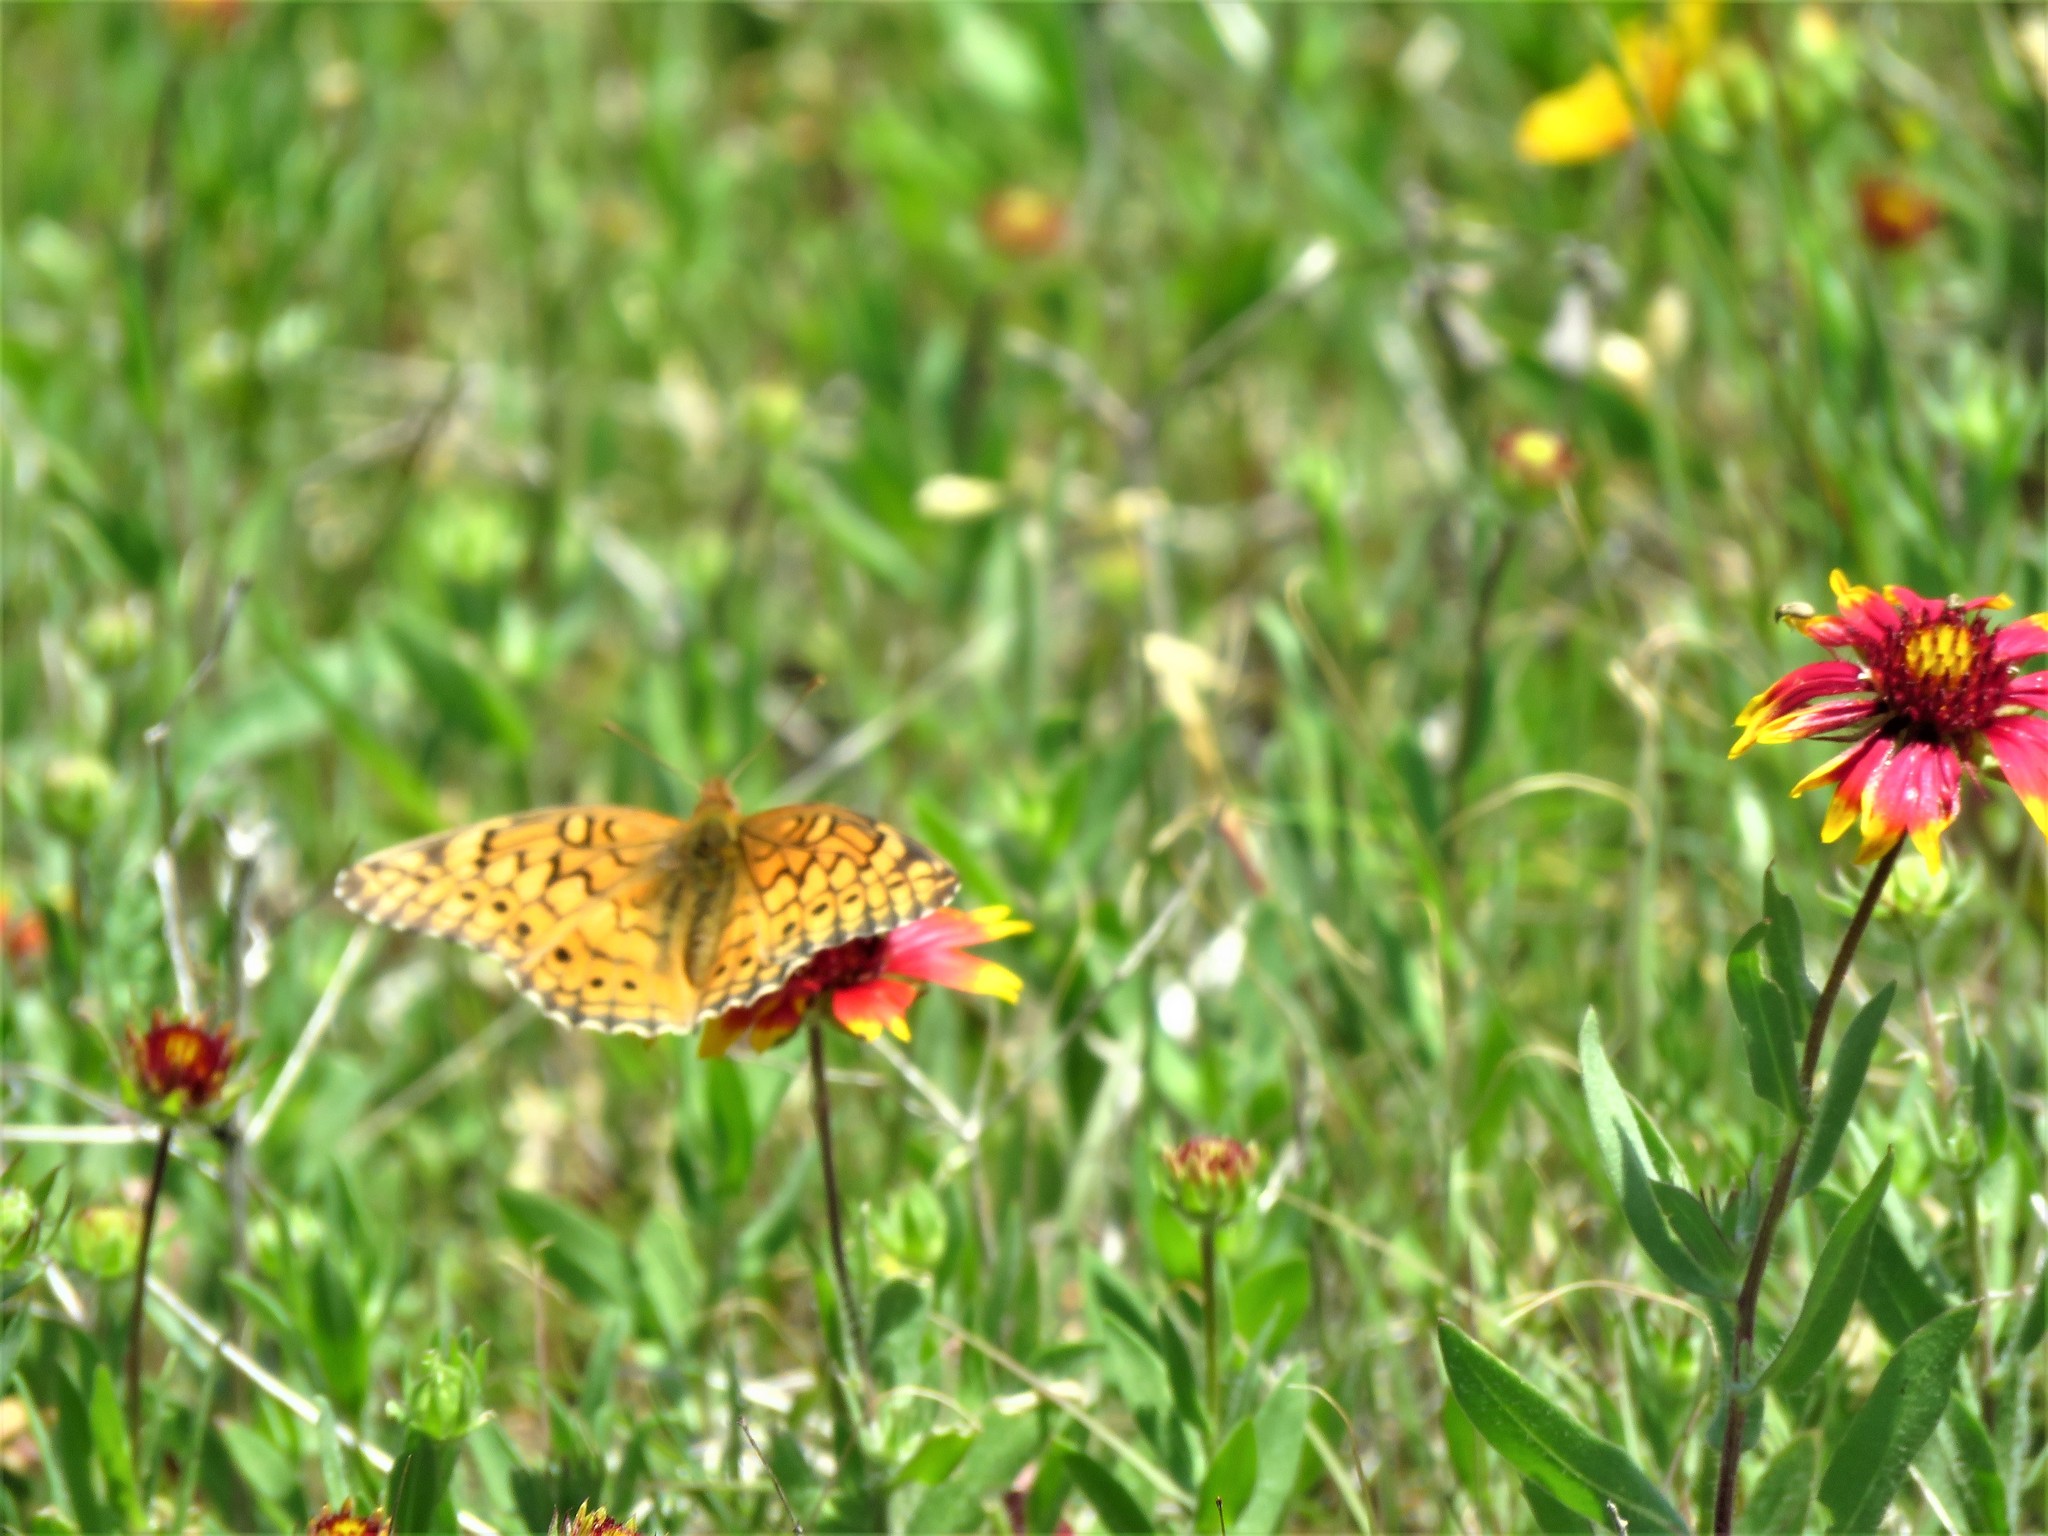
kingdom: Animalia
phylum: Arthropoda
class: Insecta
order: Lepidoptera
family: Nymphalidae
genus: Euptoieta
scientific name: Euptoieta claudia
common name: Variegated fritillary
